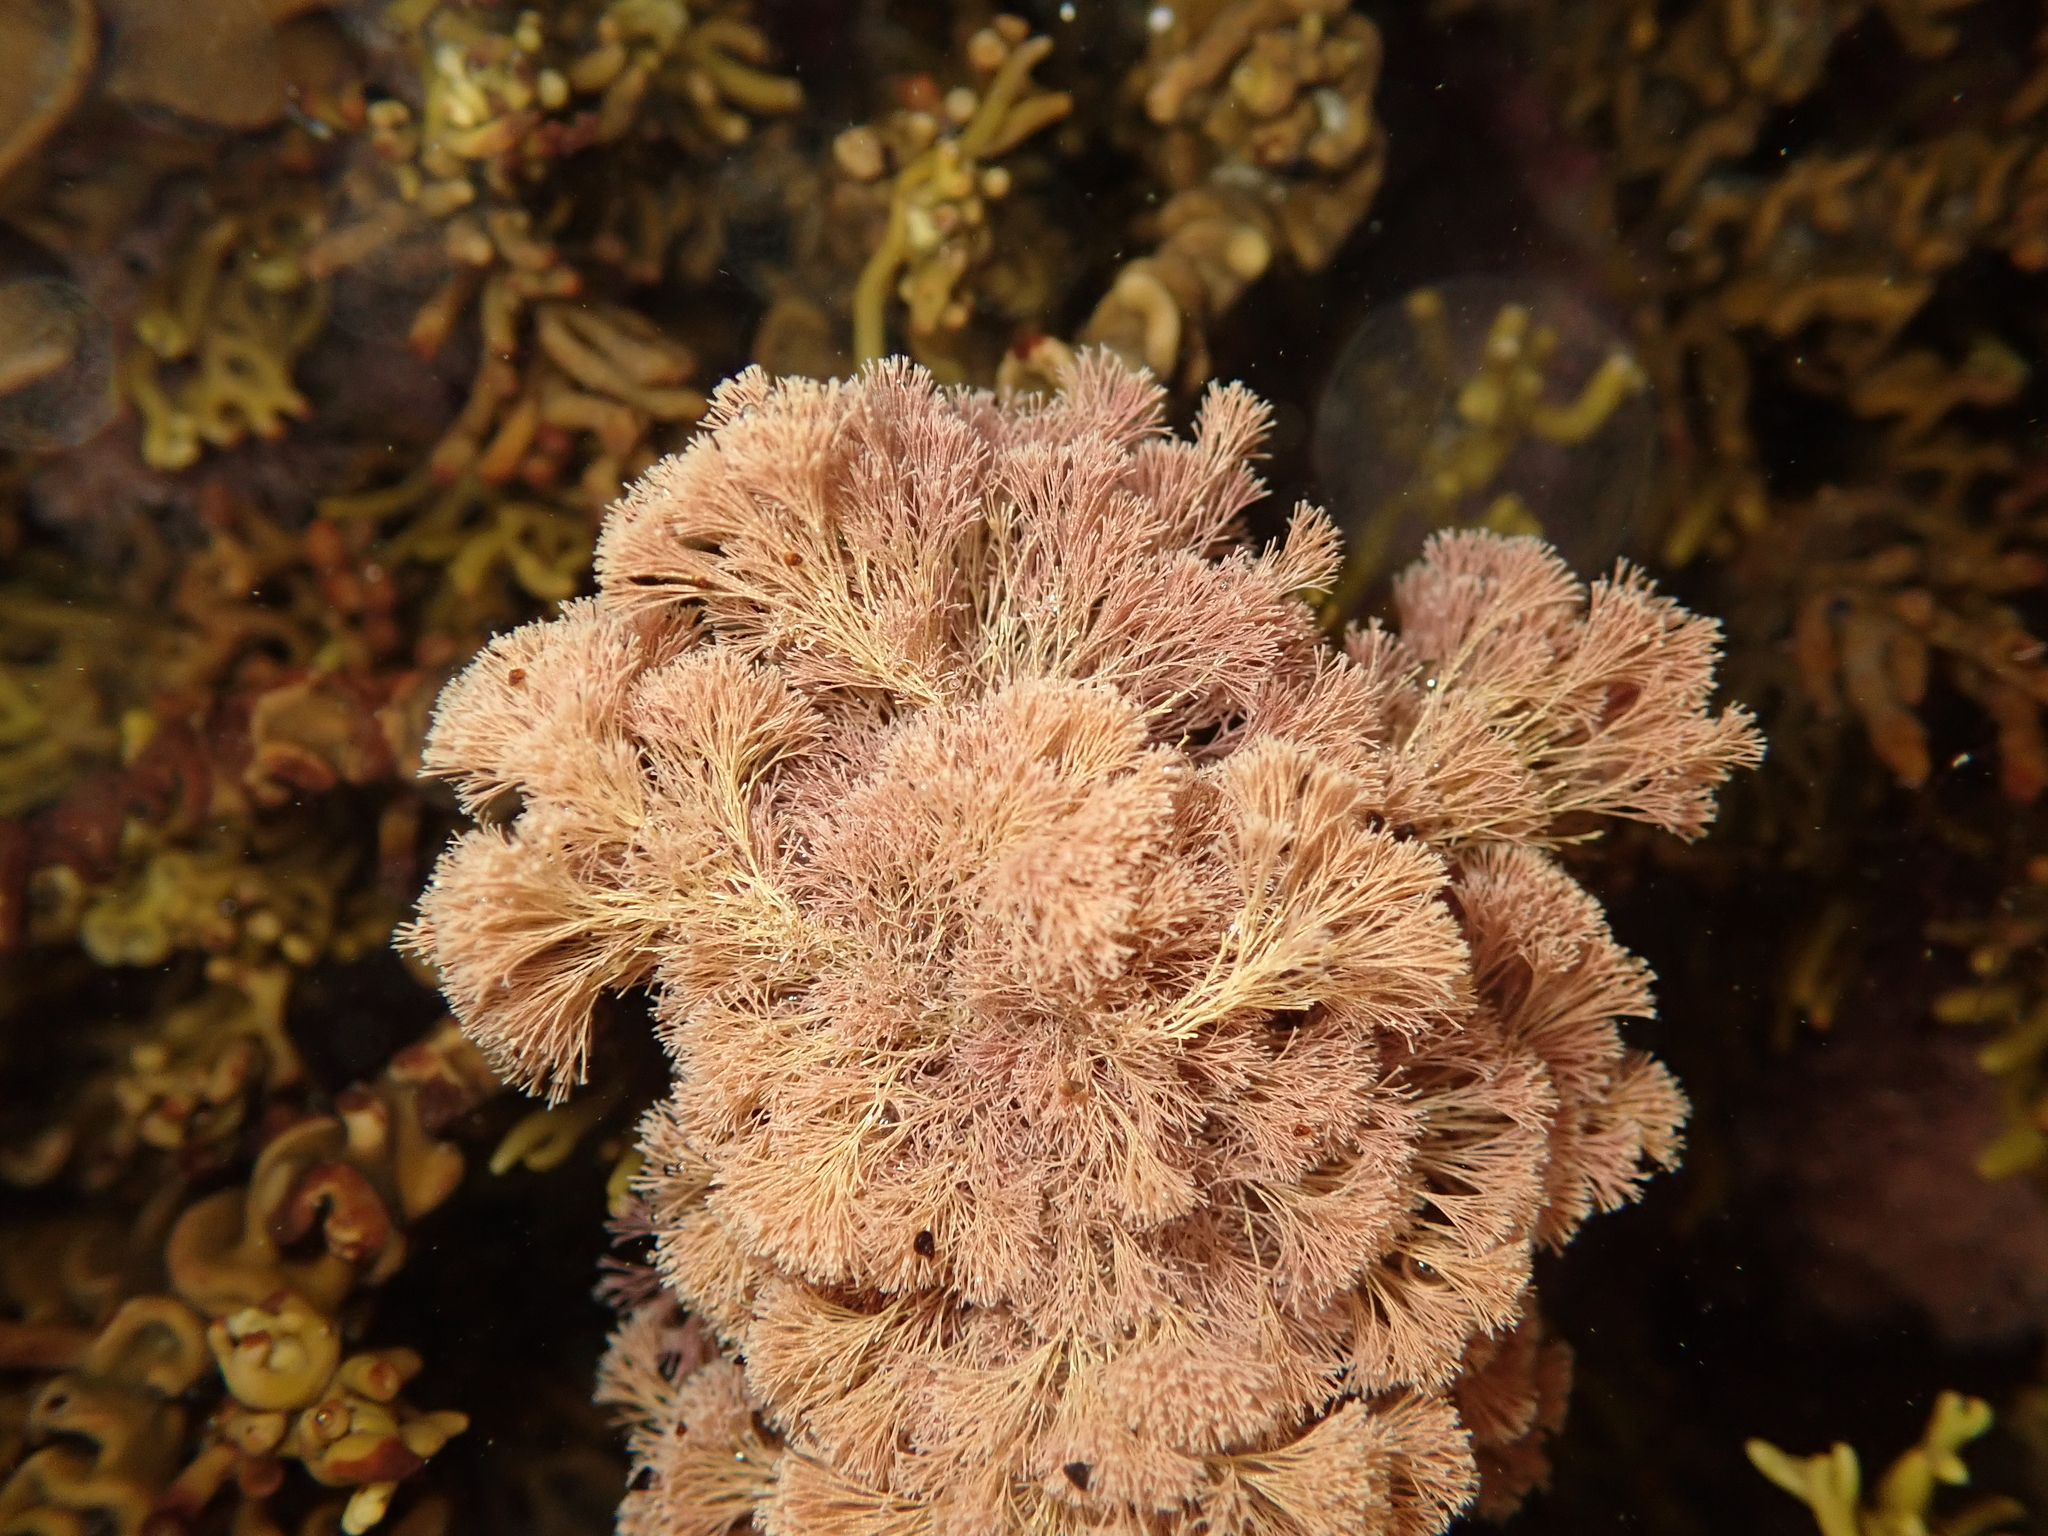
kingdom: Plantae
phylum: Rhodophyta
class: Florideophyceae
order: Corallinales
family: Corallinaceae
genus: Jania
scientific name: Jania sphaeroramosa
